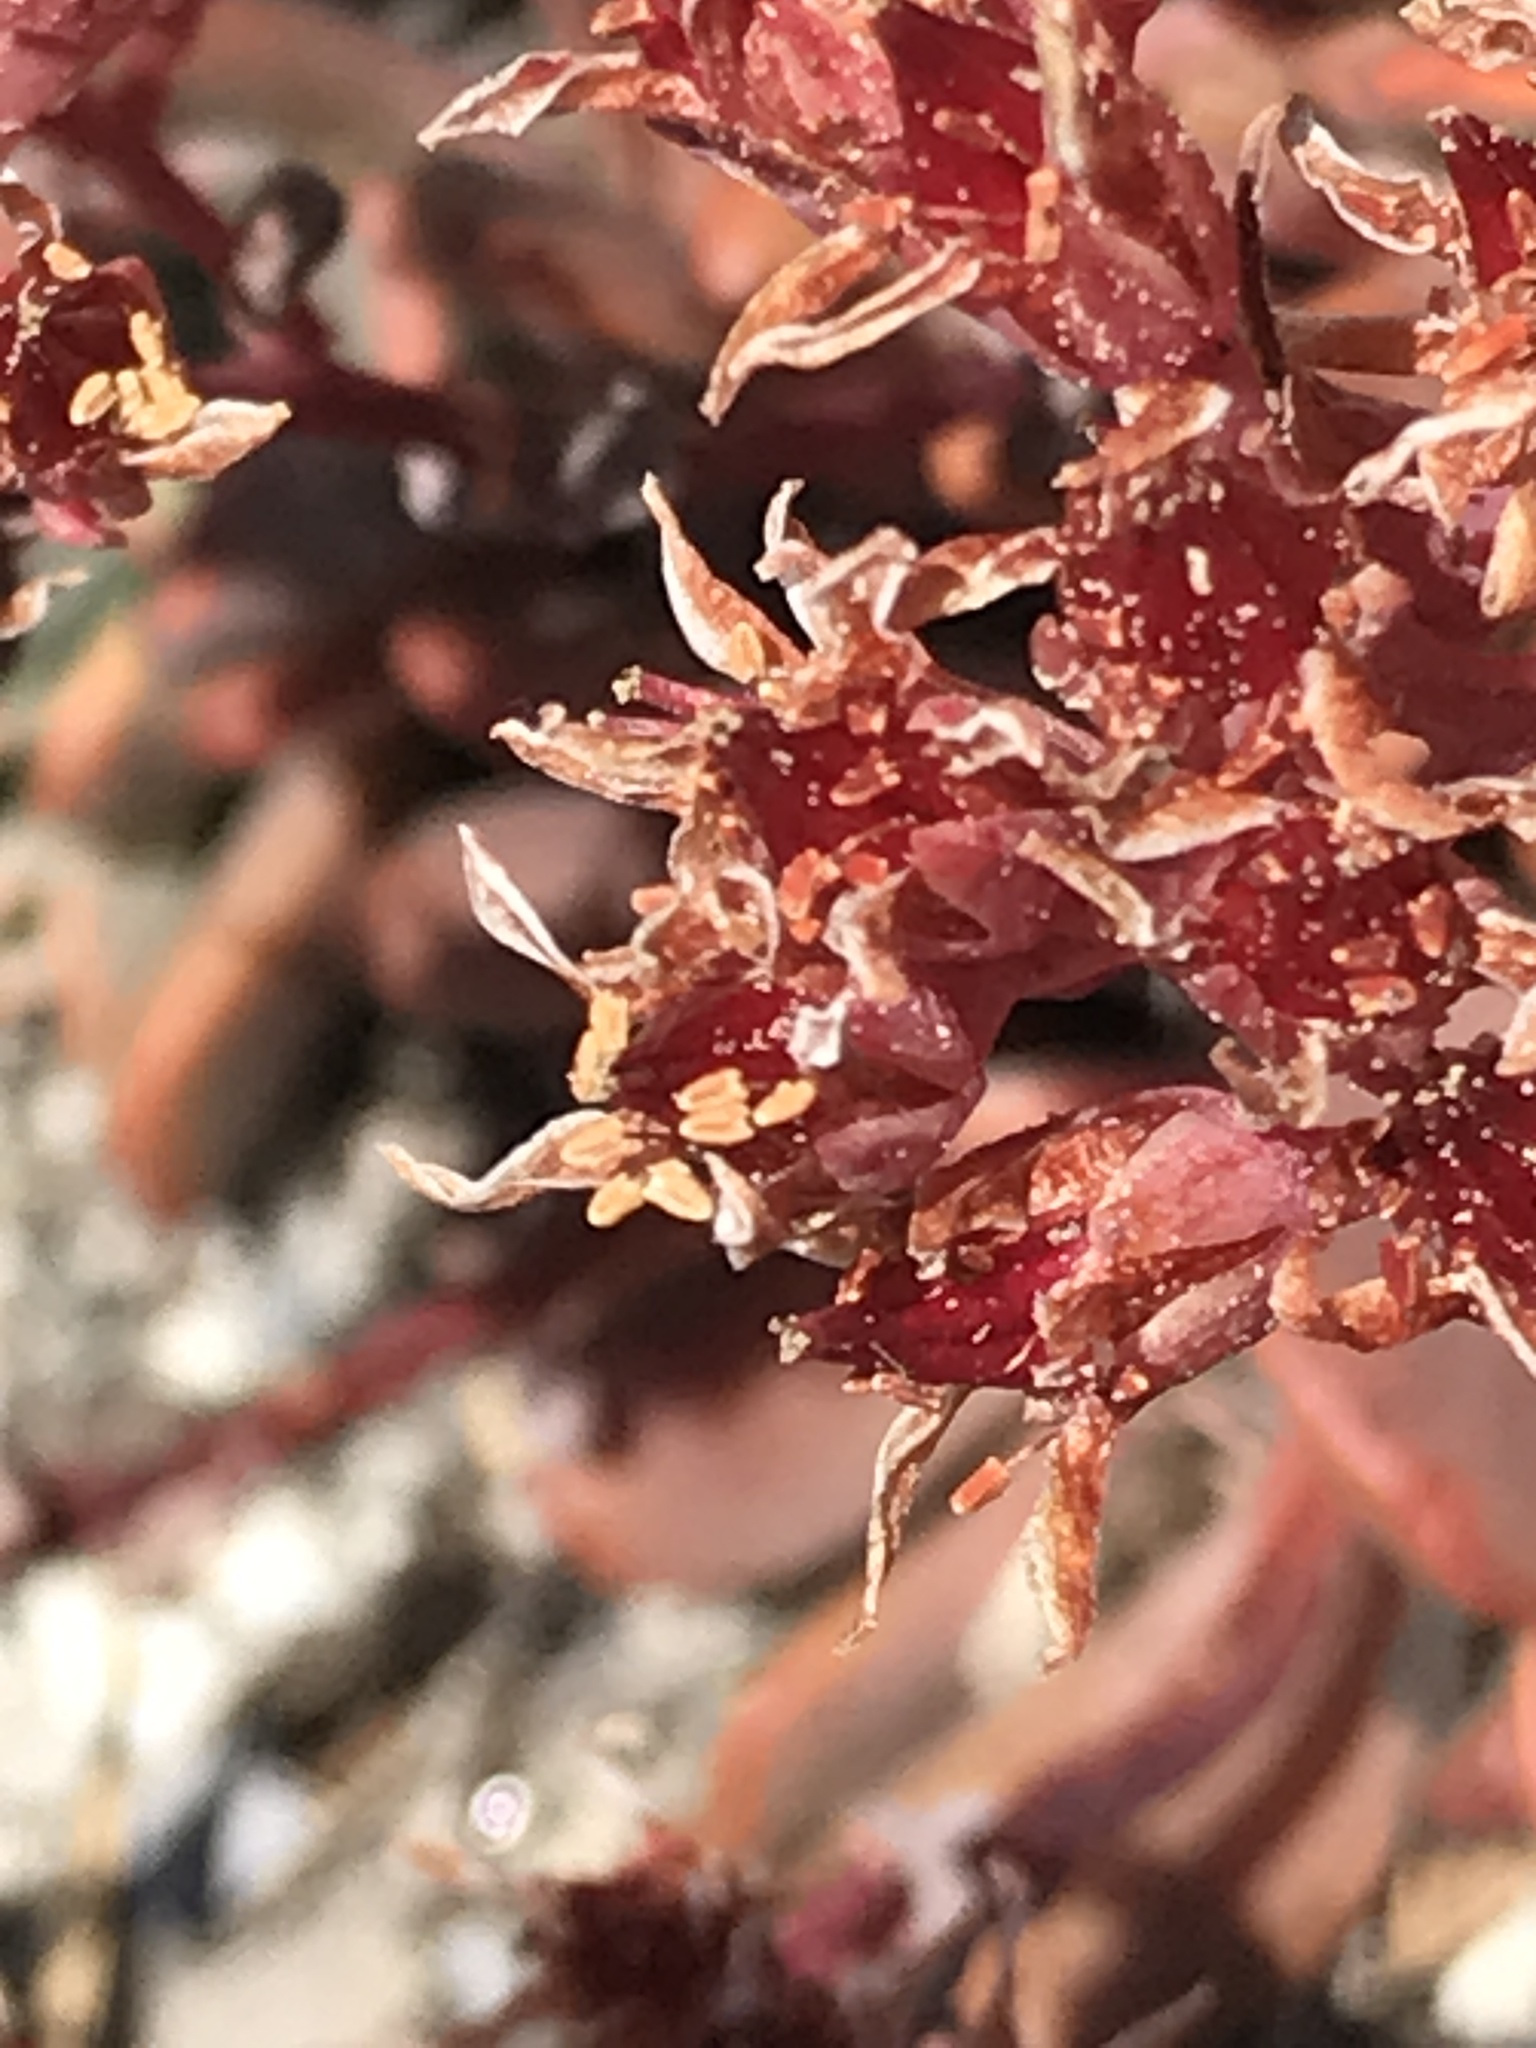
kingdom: Plantae
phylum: Tracheophyta
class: Magnoliopsida
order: Saxifragales
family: Crassulaceae
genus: Sedum
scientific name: Sedum obtusatum
